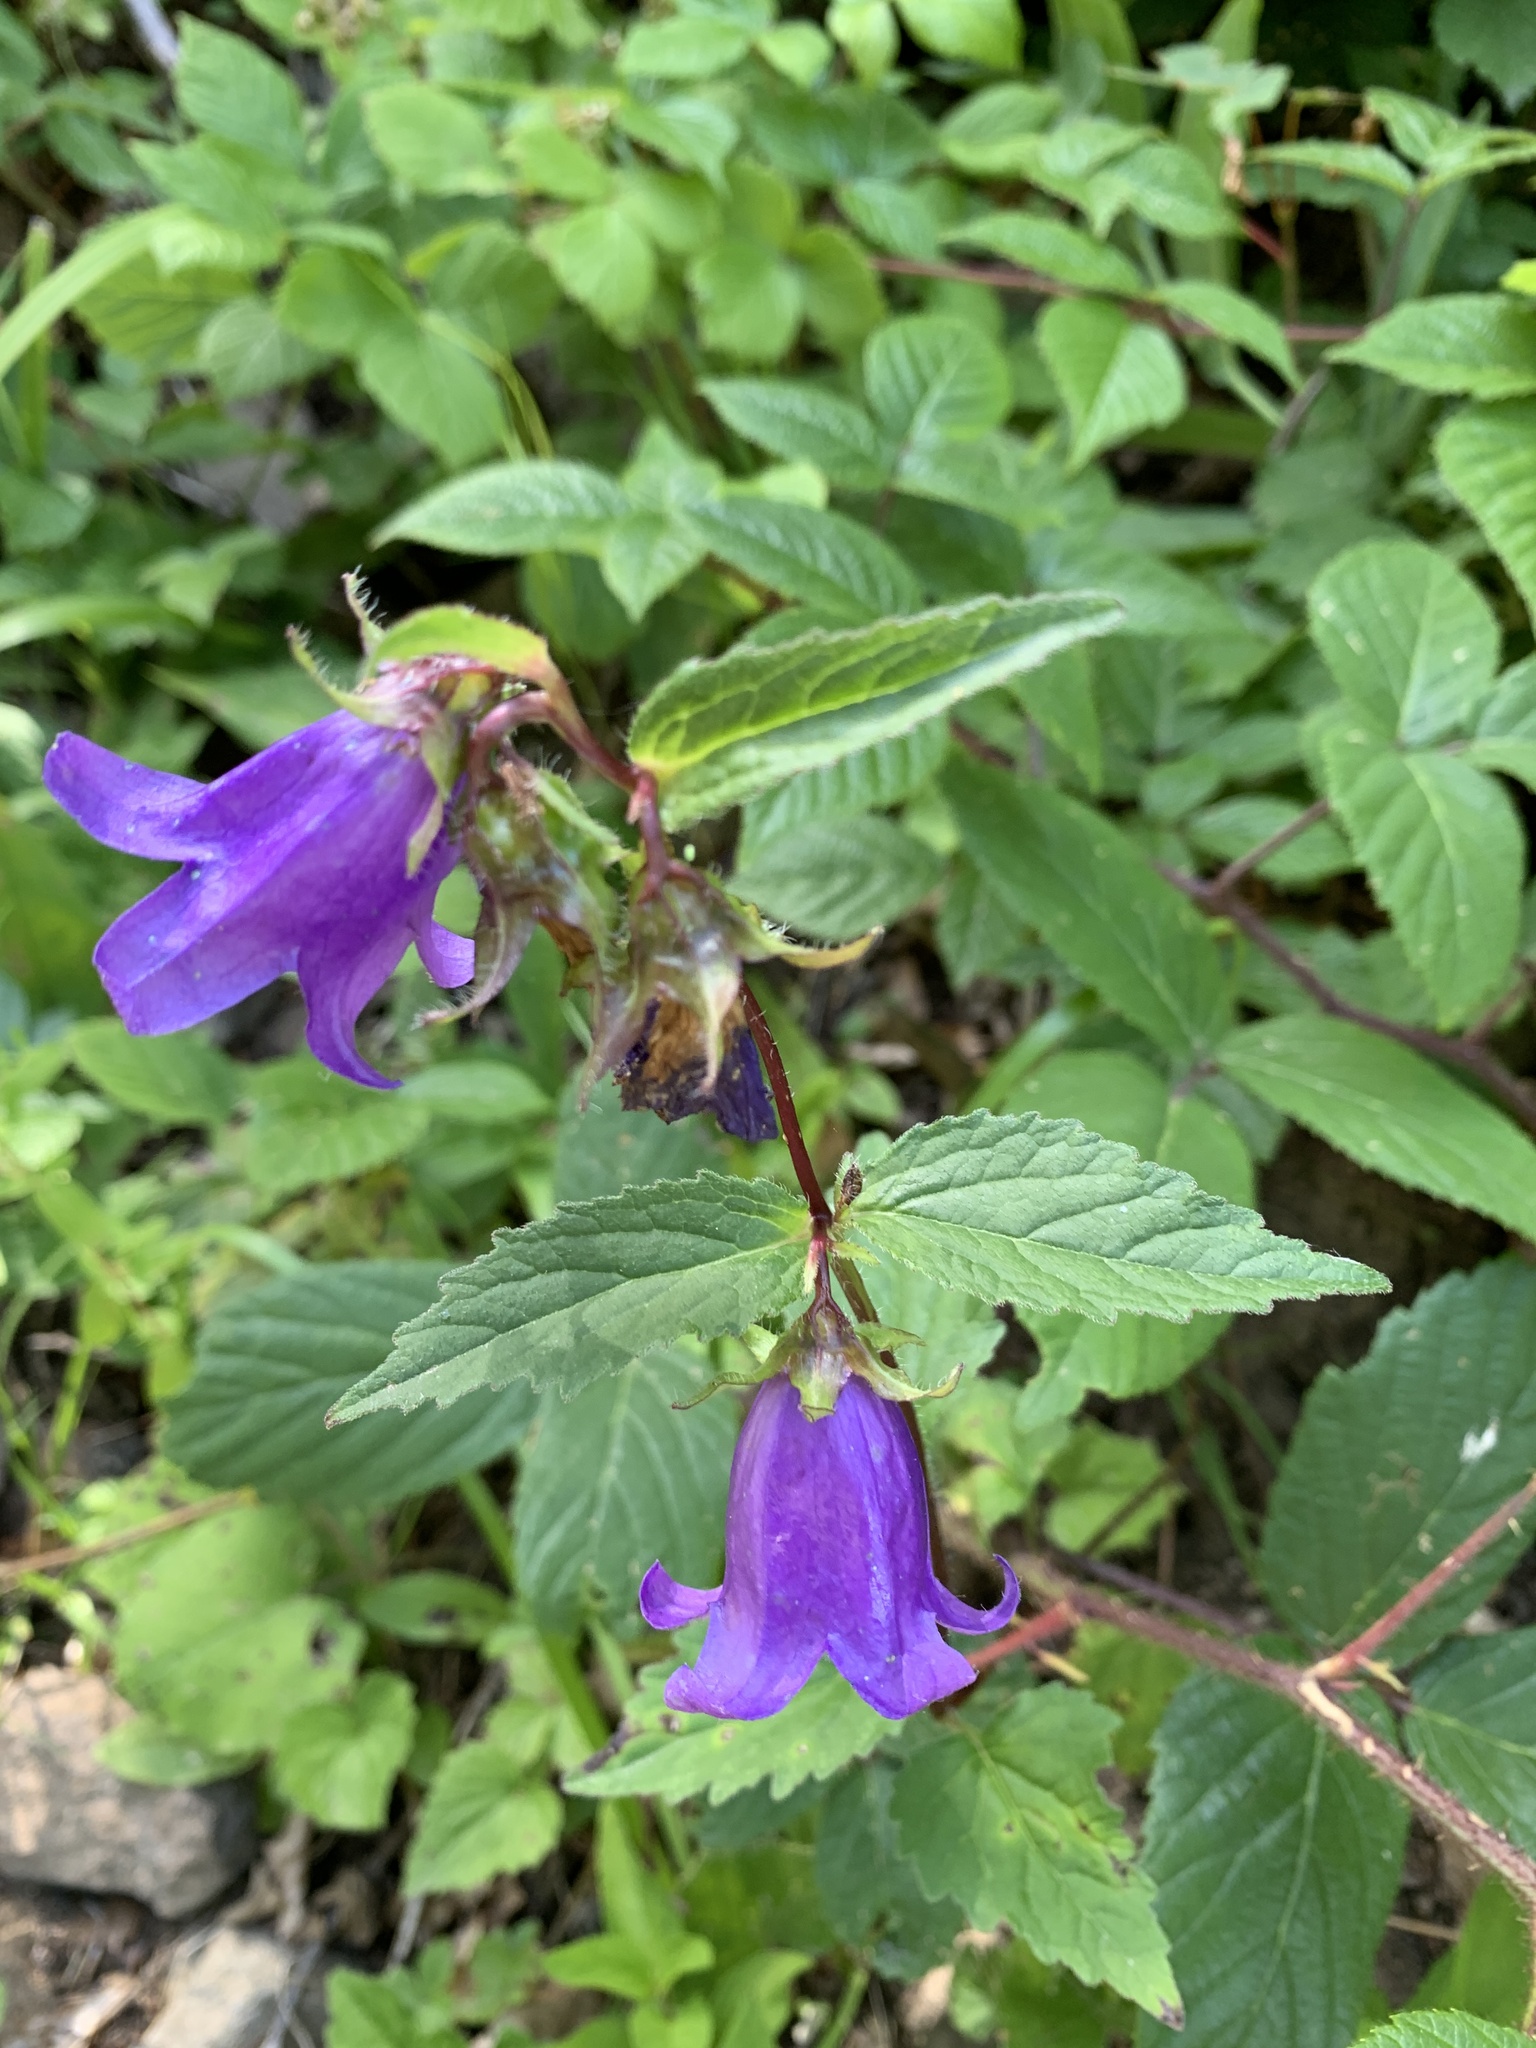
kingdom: Plantae
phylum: Tracheophyta
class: Magnoliopsida
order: Asterales
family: Campanulaceae
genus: Campanula
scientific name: Campanula trachelium
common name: Nettle-leaved bellflower
